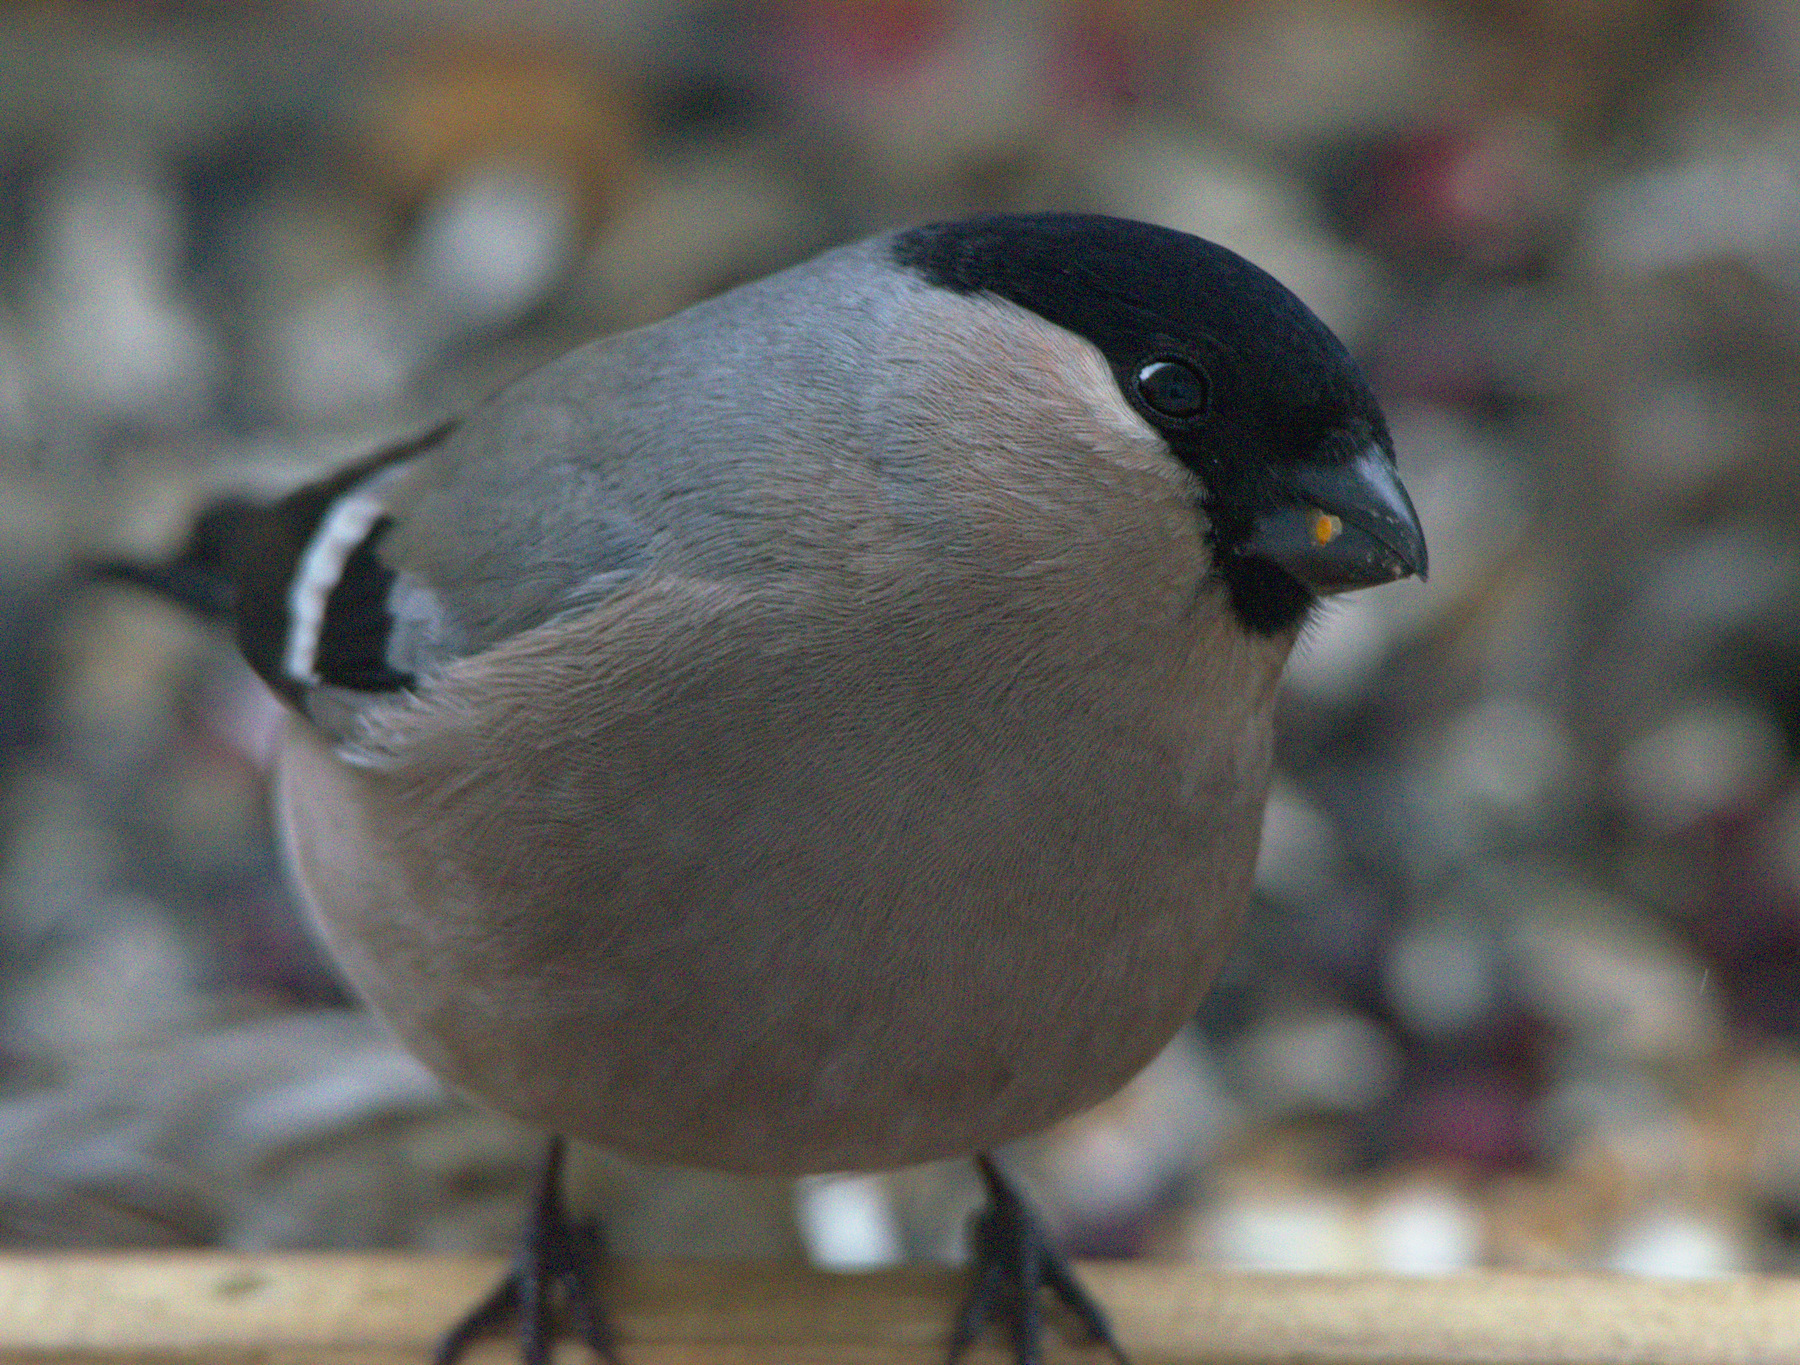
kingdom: Animalia
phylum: Chordata
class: Aves
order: Passeriformes
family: Fringillidae
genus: Pyrrhula
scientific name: Pyrrhula pyrrhula
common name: Eurasian bullfinch
